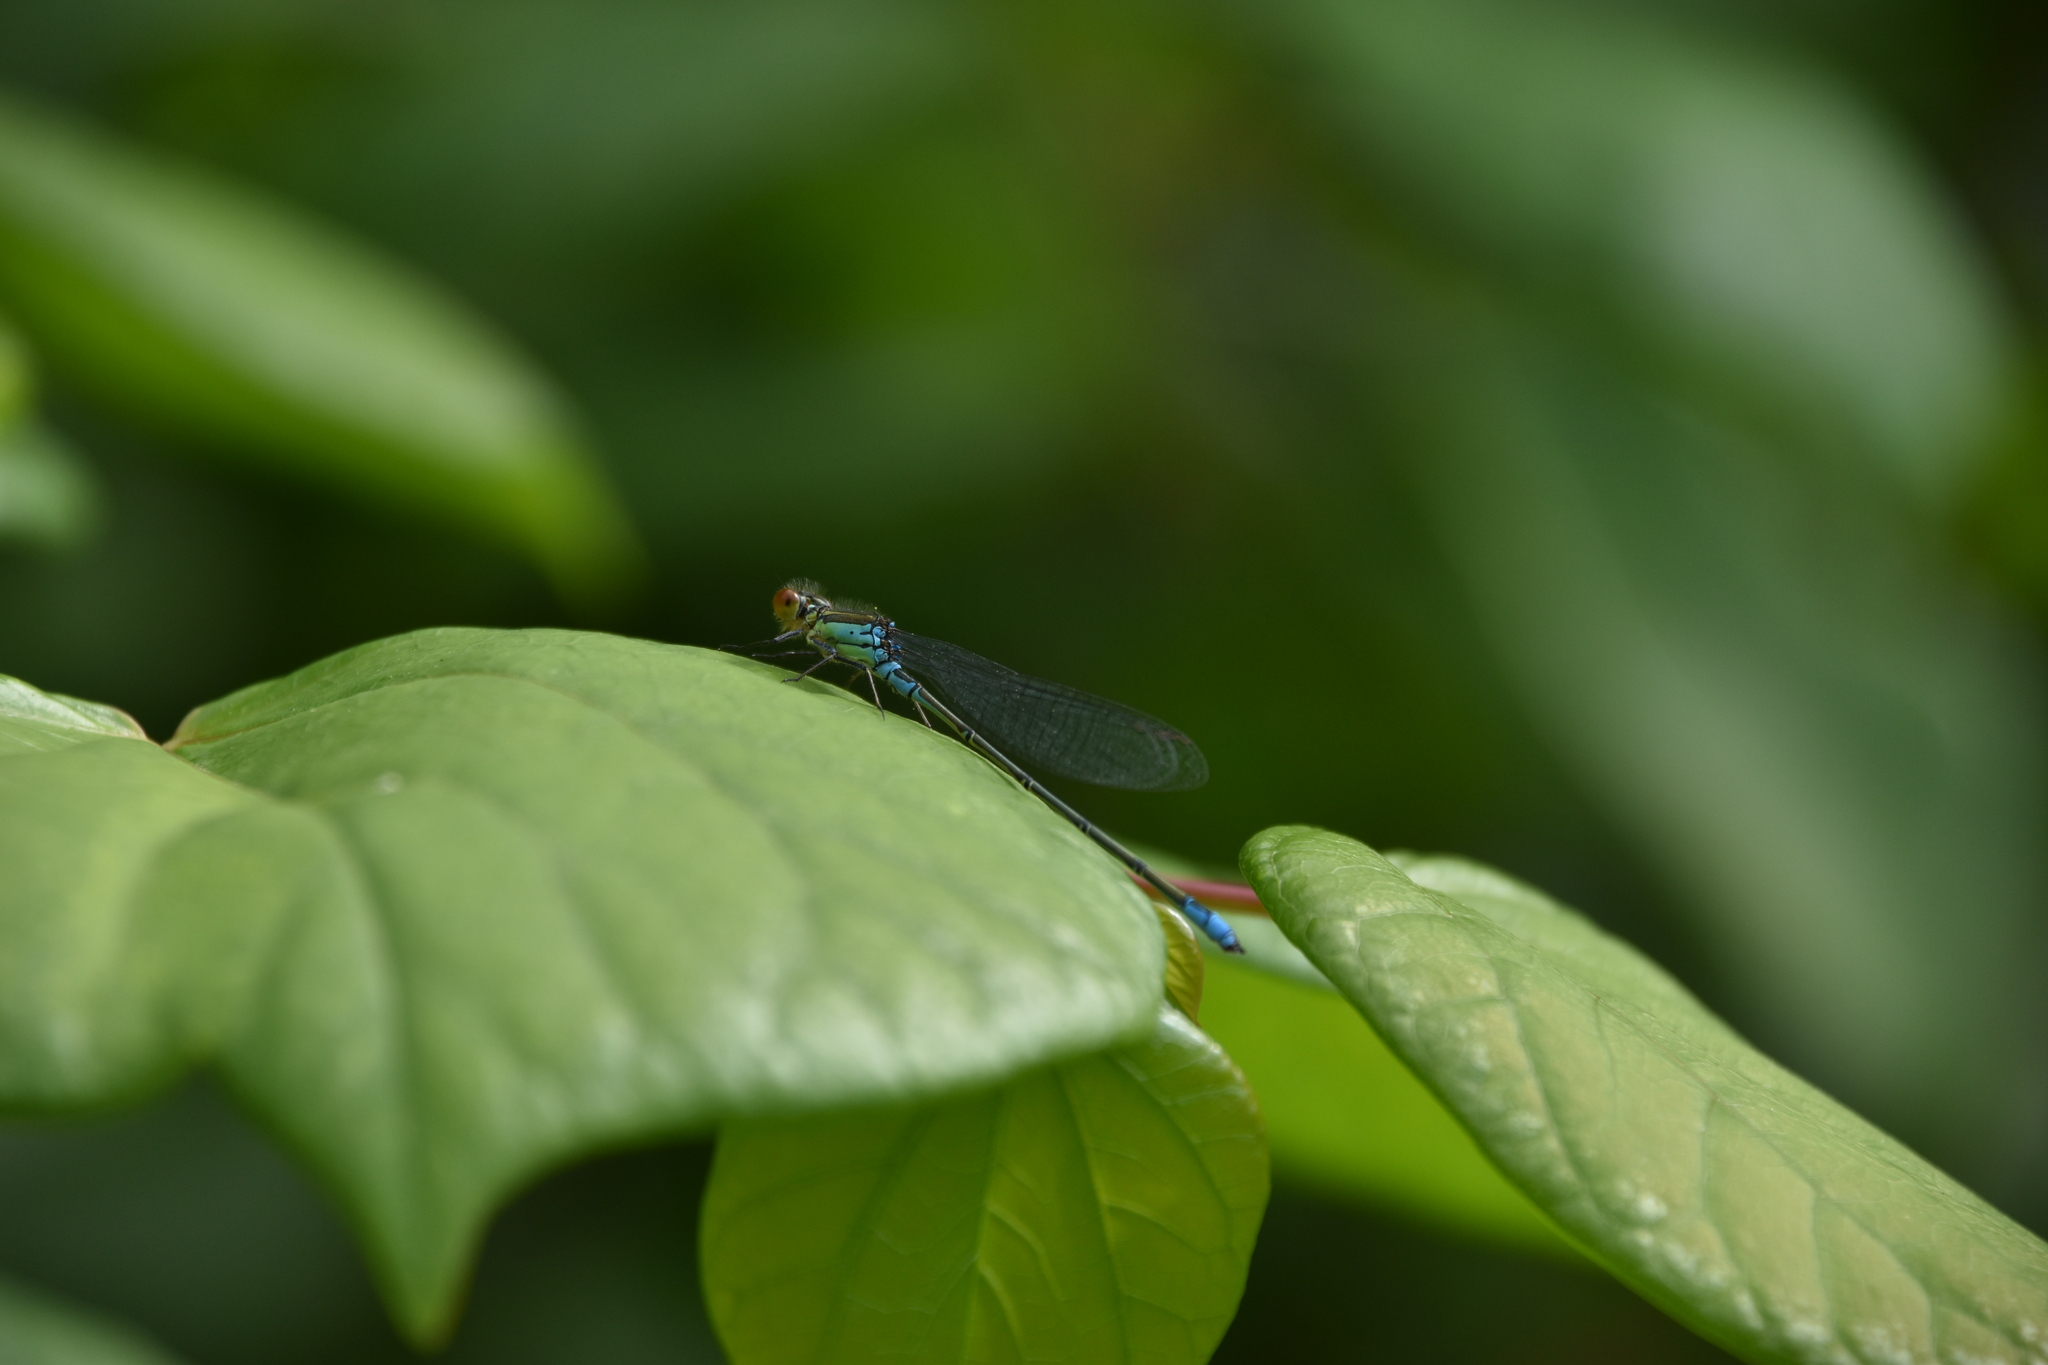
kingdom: Animalia
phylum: Arthropoda
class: Insecta
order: Odonata
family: Coenagrionidae
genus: Erythromma
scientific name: Erythromma viridulum
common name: Small red-eyed damselfly
